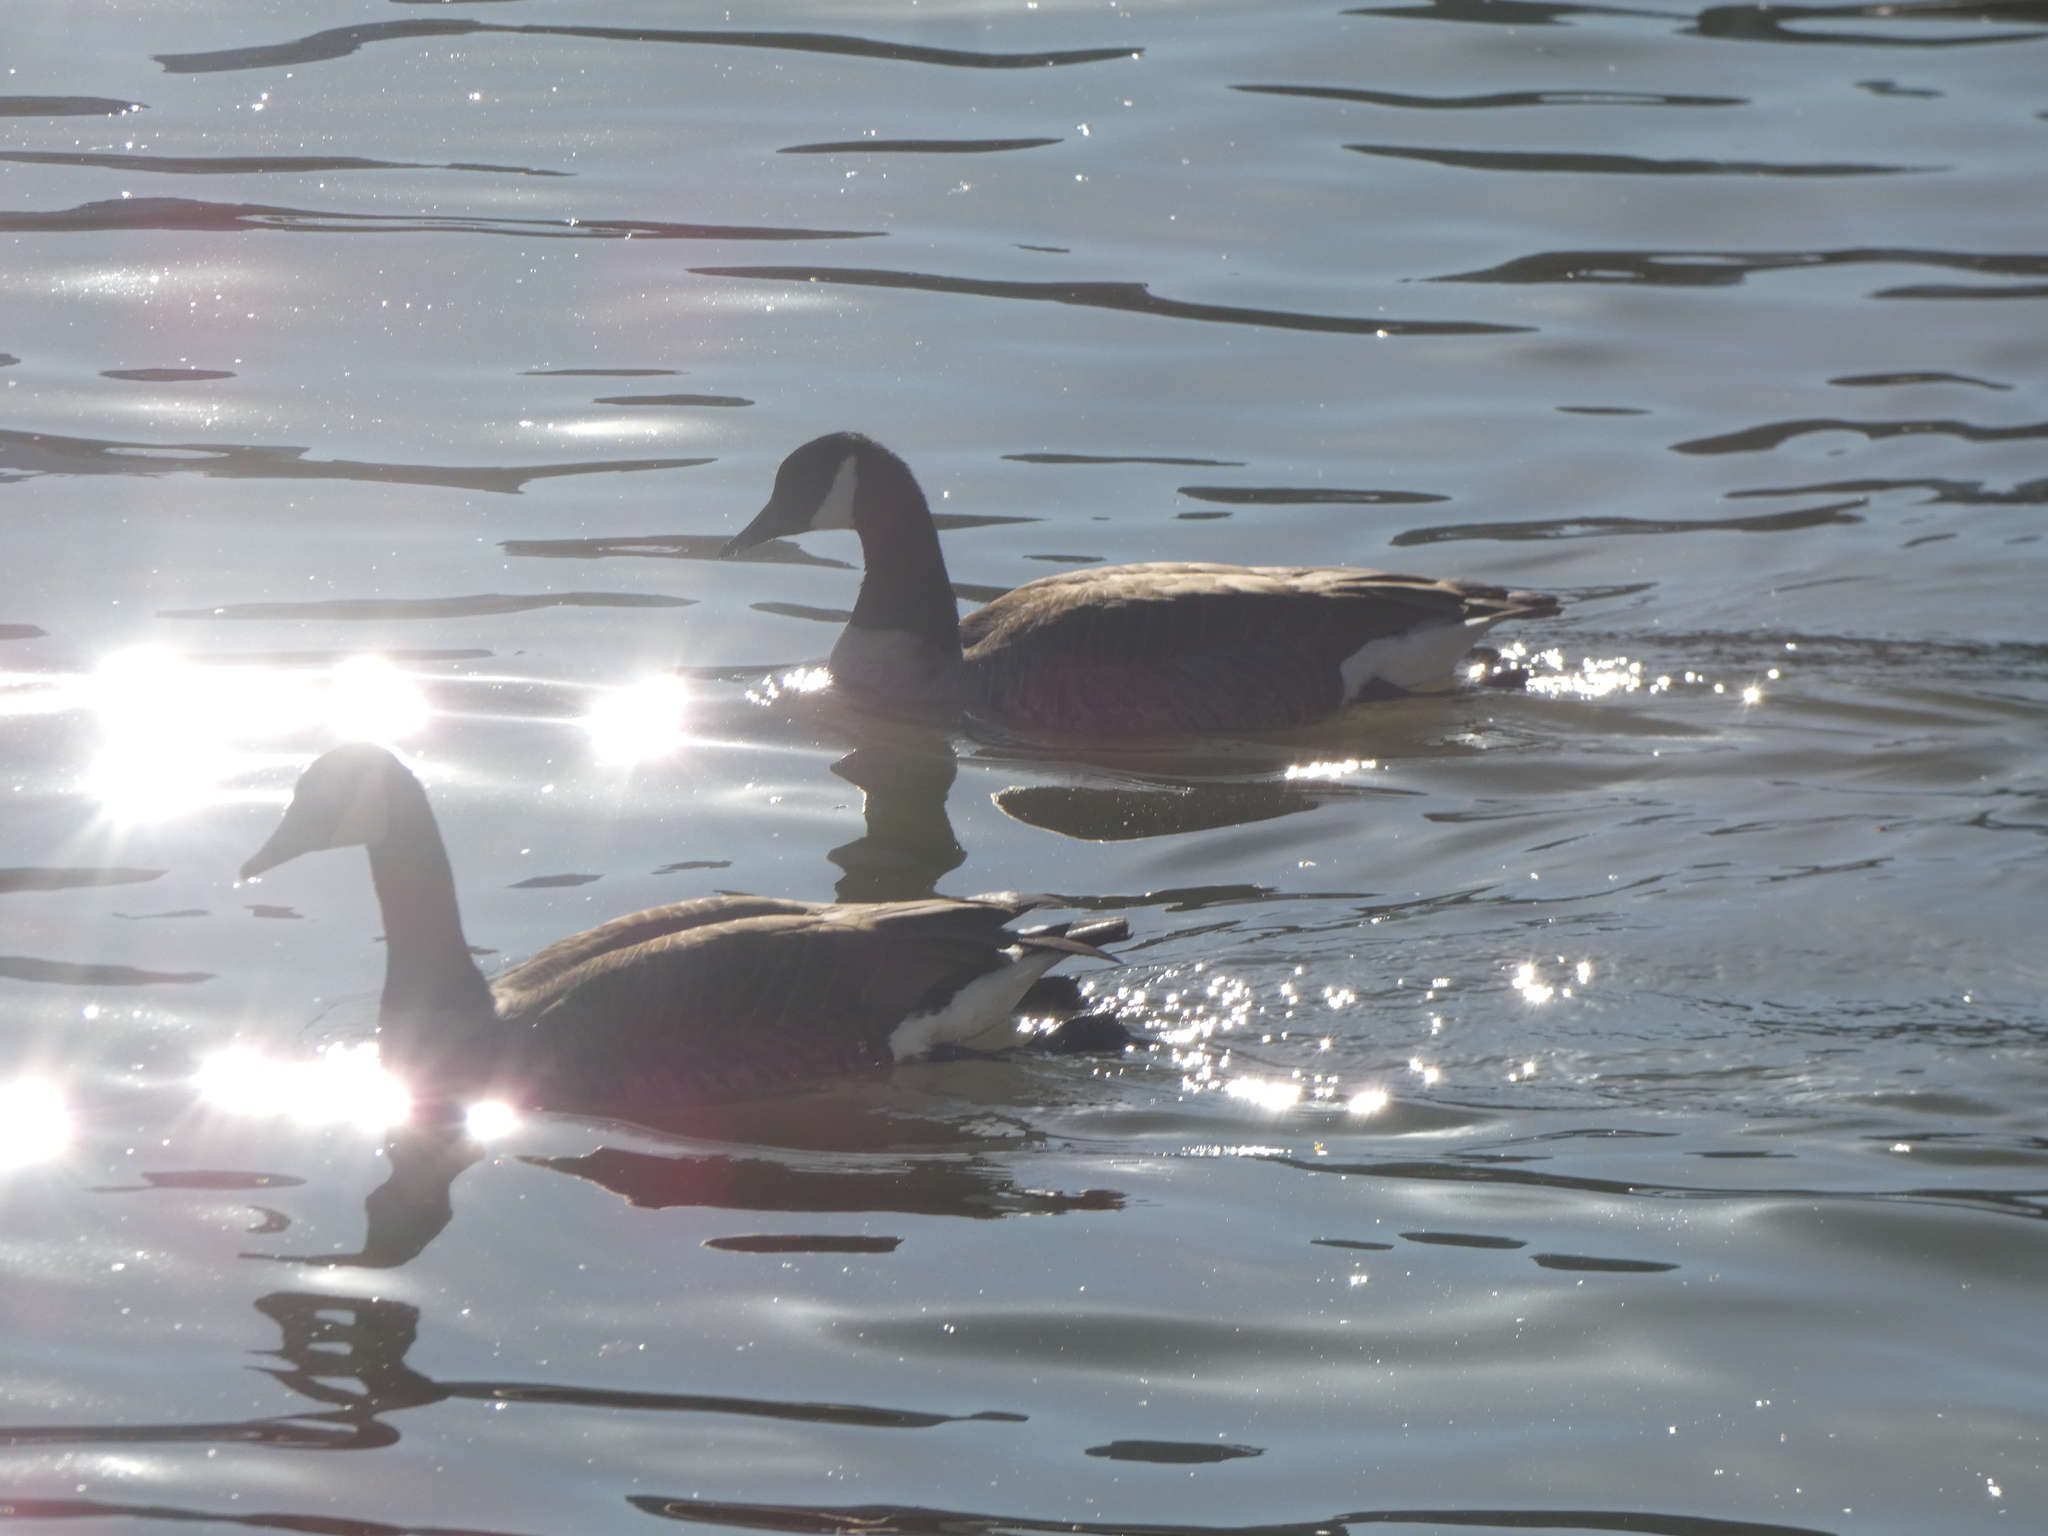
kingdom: Animalia
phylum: Chordata
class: Aves
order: Anseriformes
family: Anatidae
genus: Branta
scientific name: Branta canadensis
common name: Canada goose
